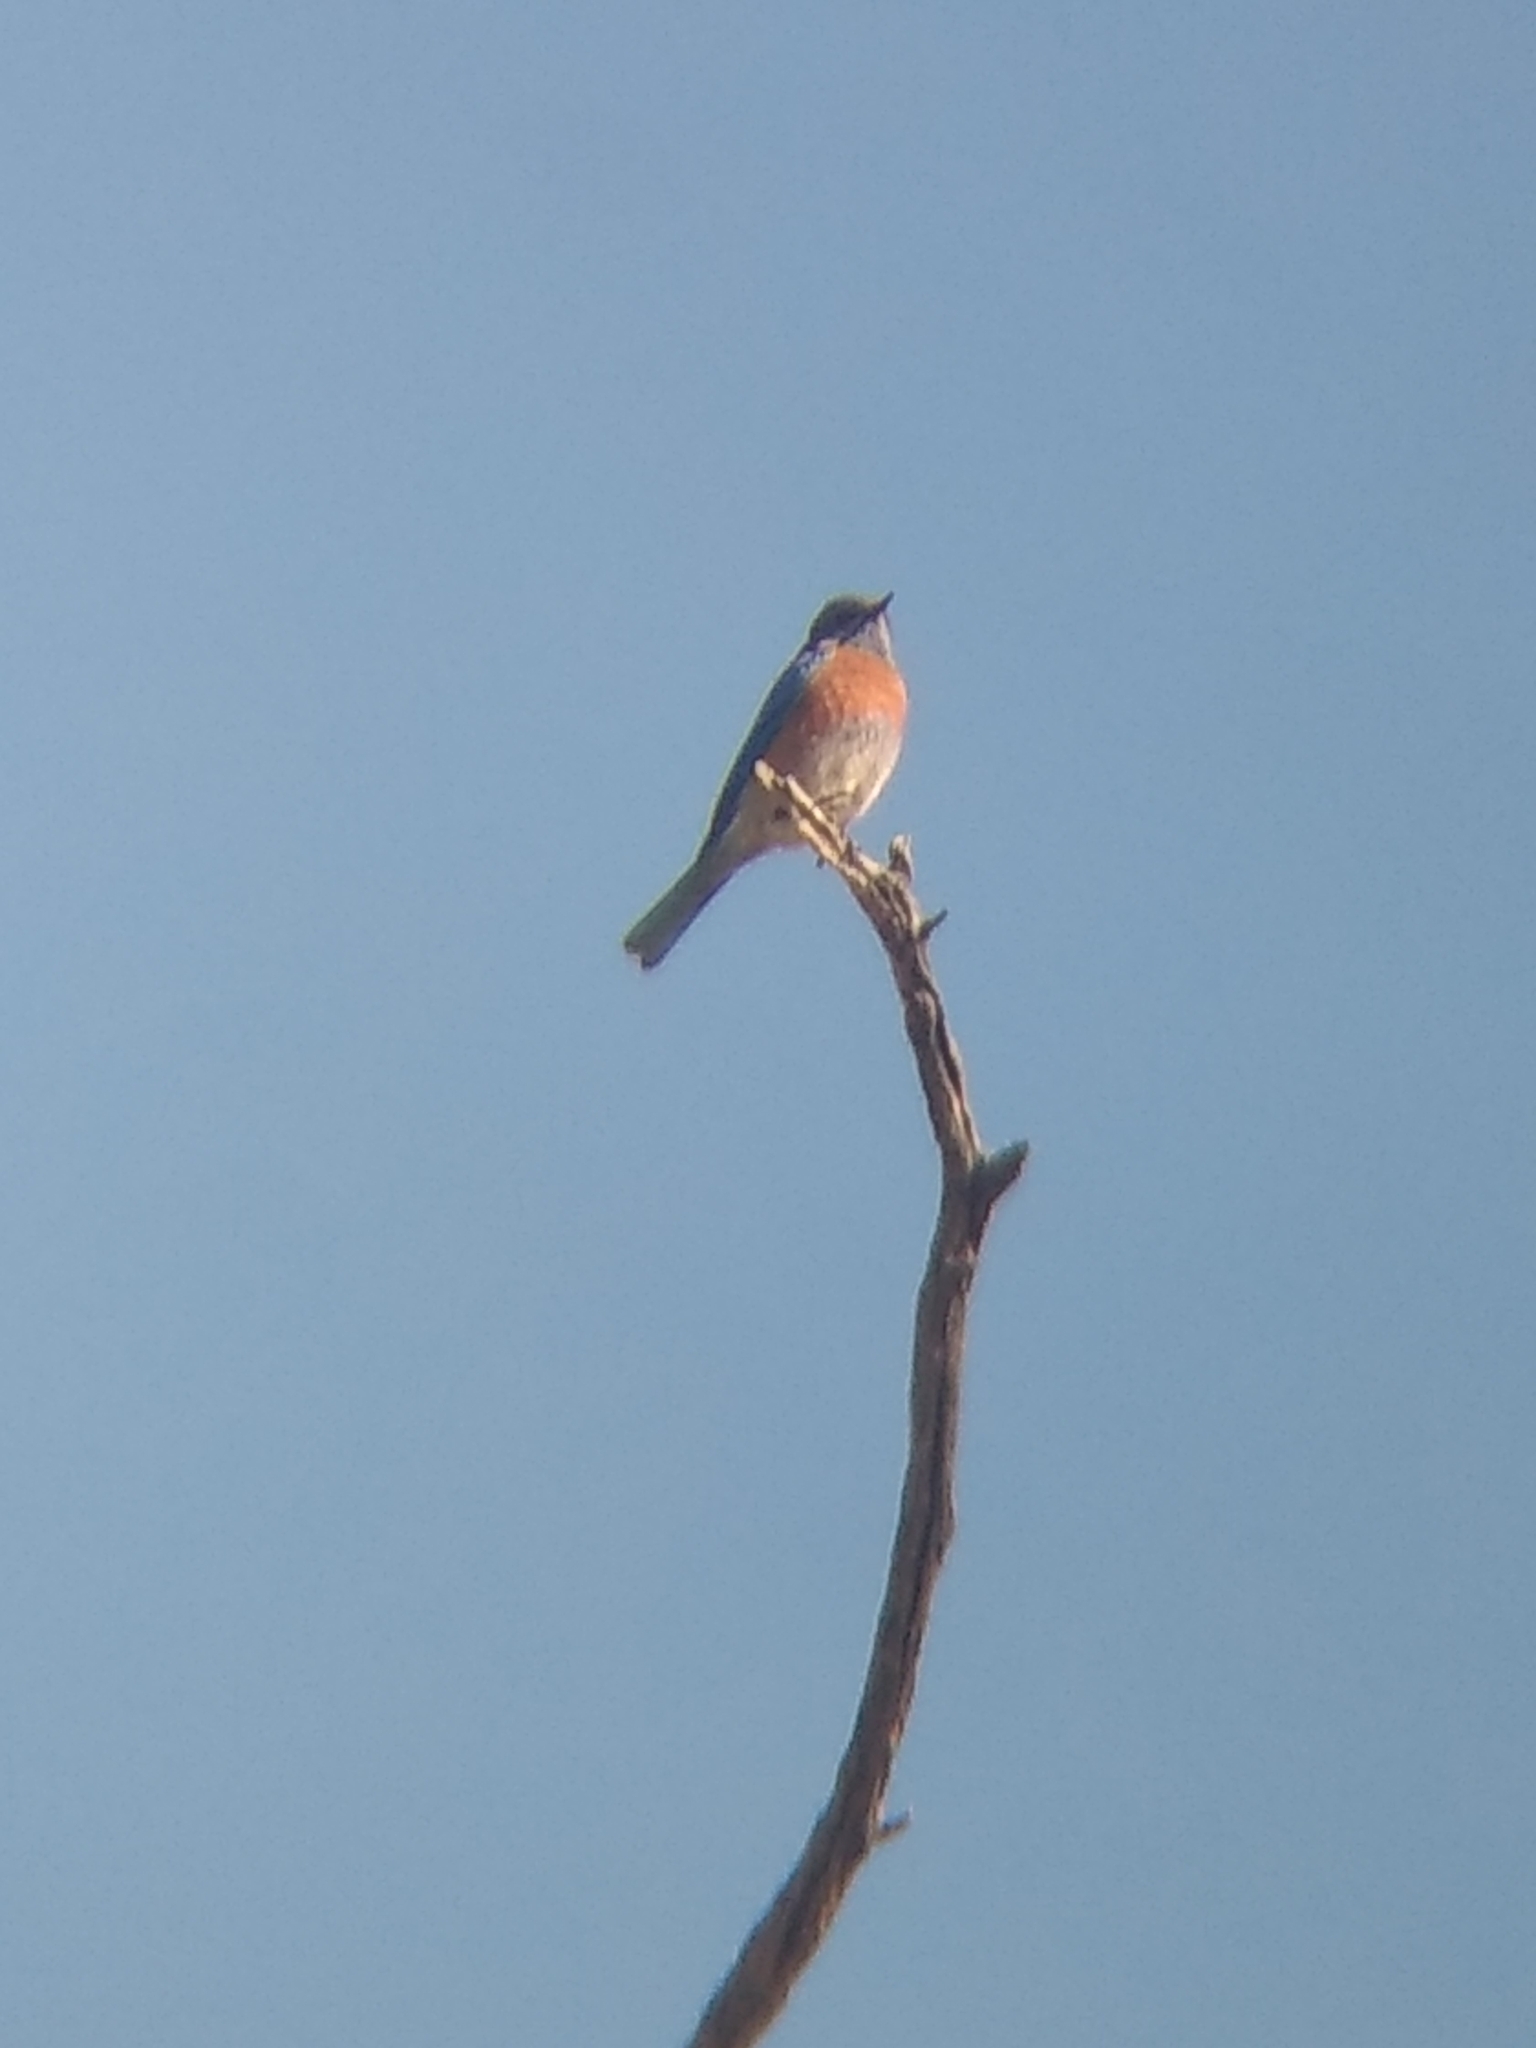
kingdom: Animalia
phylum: Chordata
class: Aves
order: Passeriformes
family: Turdidae
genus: Sialia
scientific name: Sialia mexicana
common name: Western bluebird
